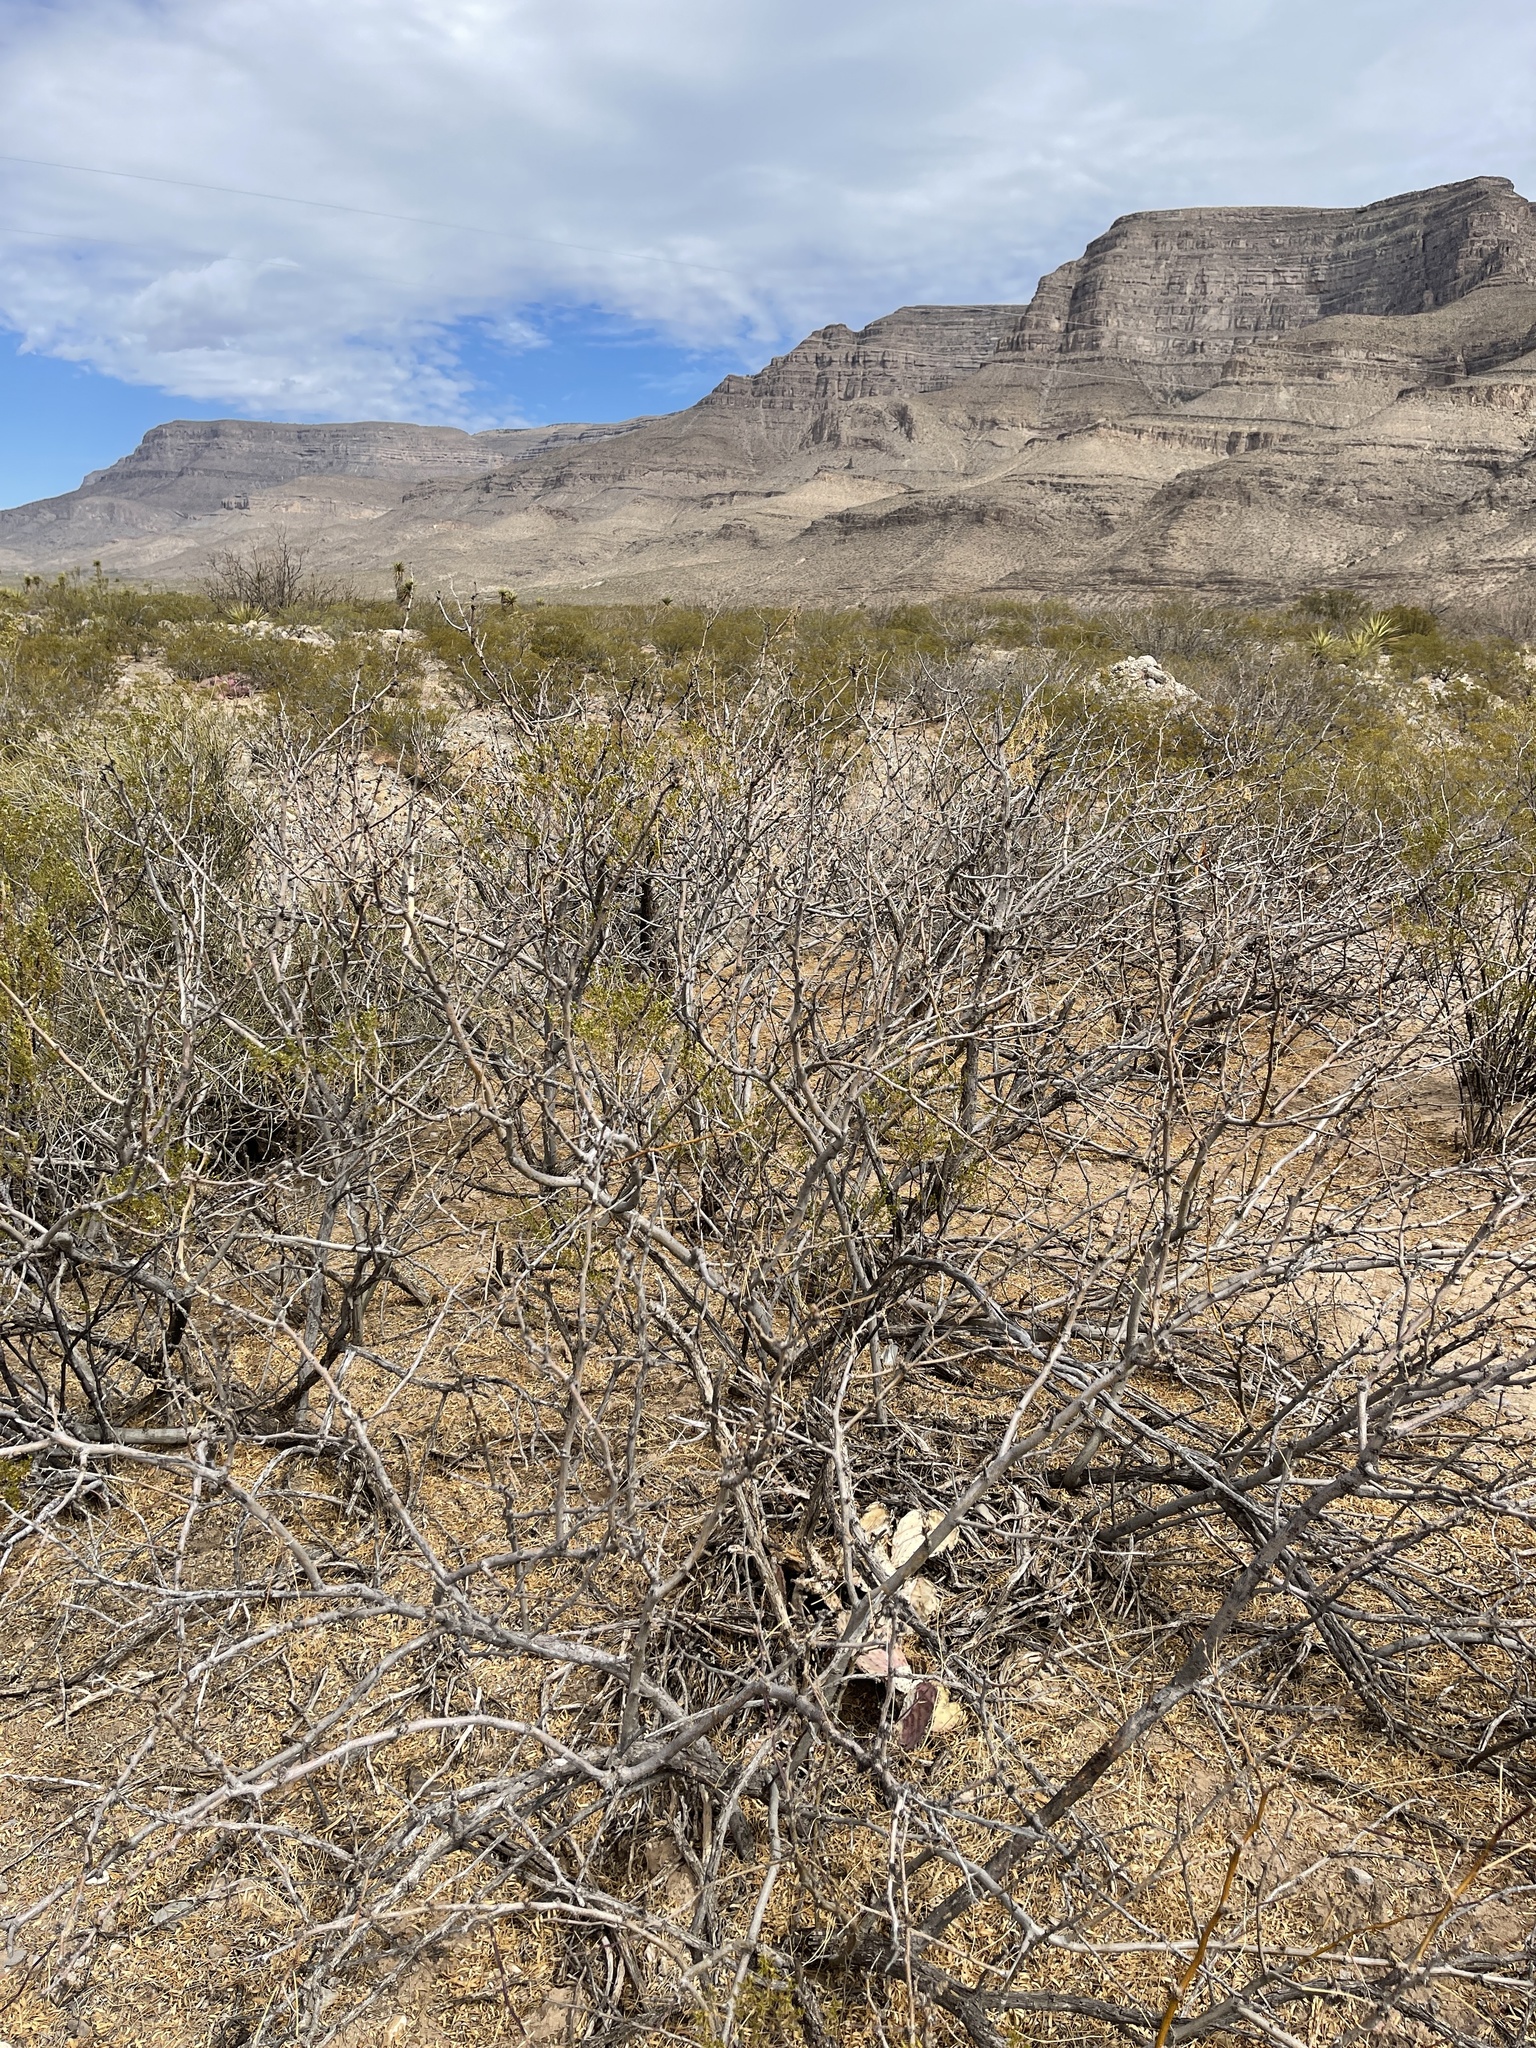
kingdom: Plantae
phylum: Tracheophyta
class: Magnoliopsida
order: Fabales
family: Fabaceae
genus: Prosopis
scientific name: Prosopis glandulosa
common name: Honey mesquite
